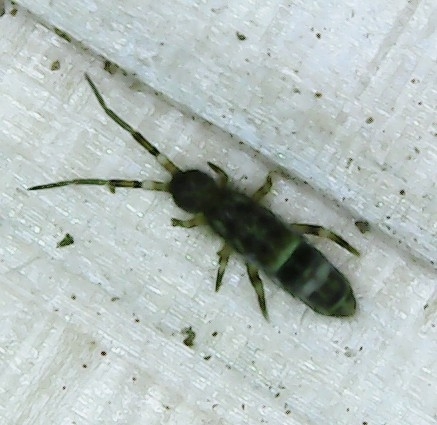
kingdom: Animalia
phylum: Arthropoda
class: Collembola
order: Entomobryomorpha
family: Orchesellidae
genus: Orchesella
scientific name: Orchesella cincta
